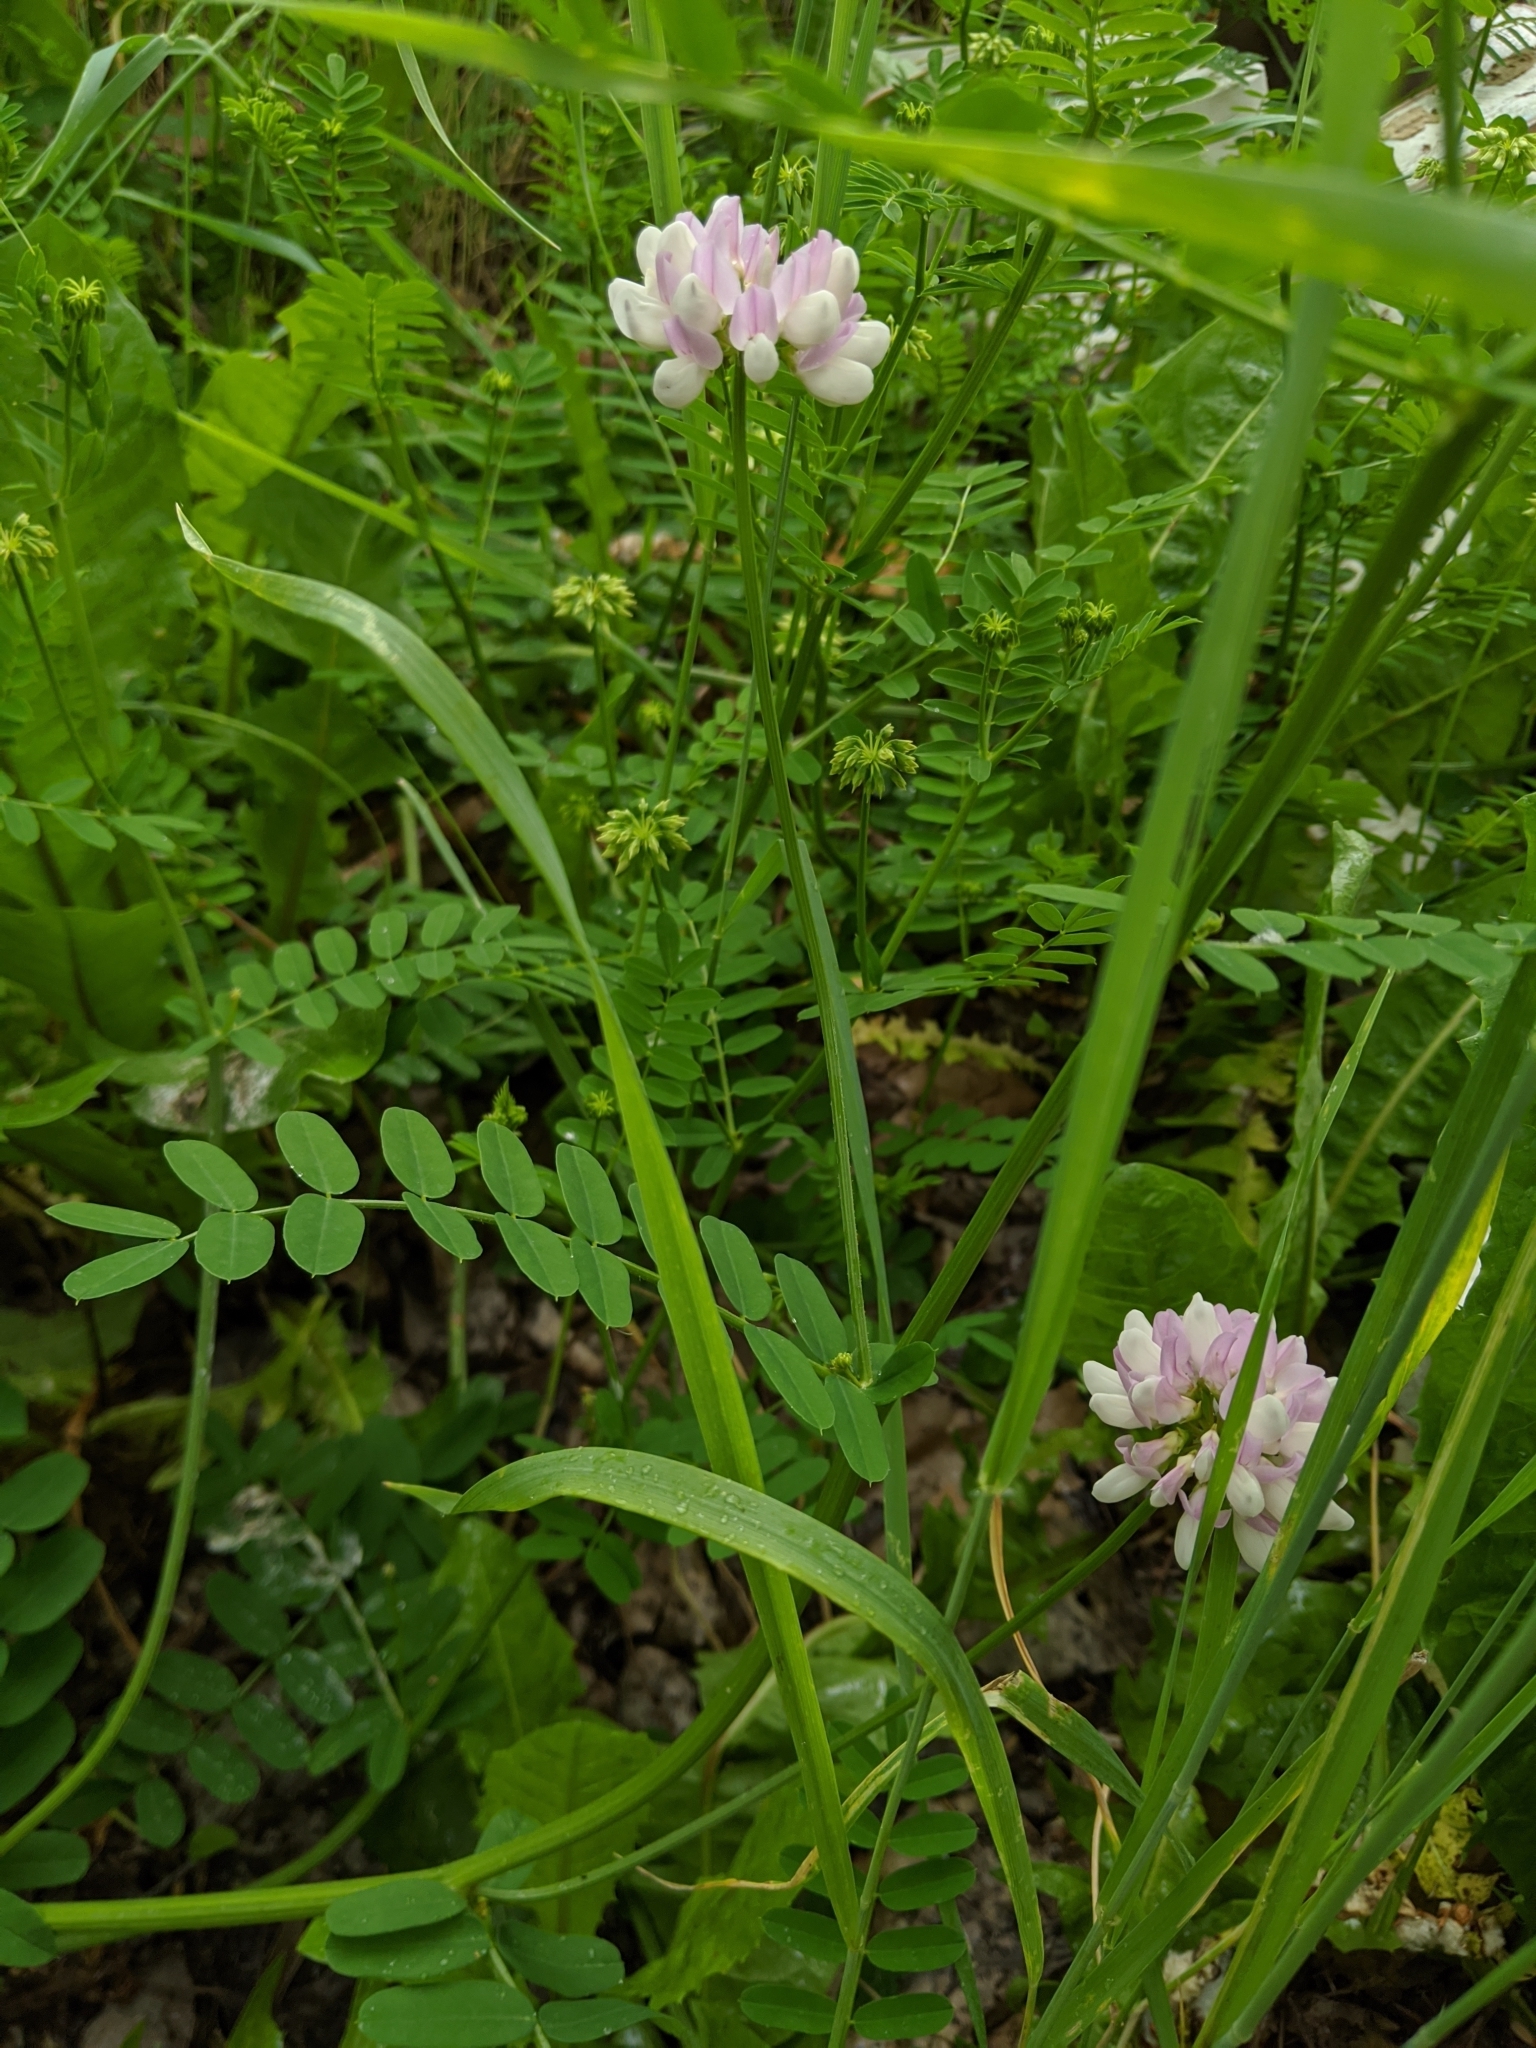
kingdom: Plantae
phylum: Tracheophyta
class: Magnoliopsida
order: Fabales
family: Fabaceae
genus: Coronilla
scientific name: Coronilla varia
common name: Crownvetch
